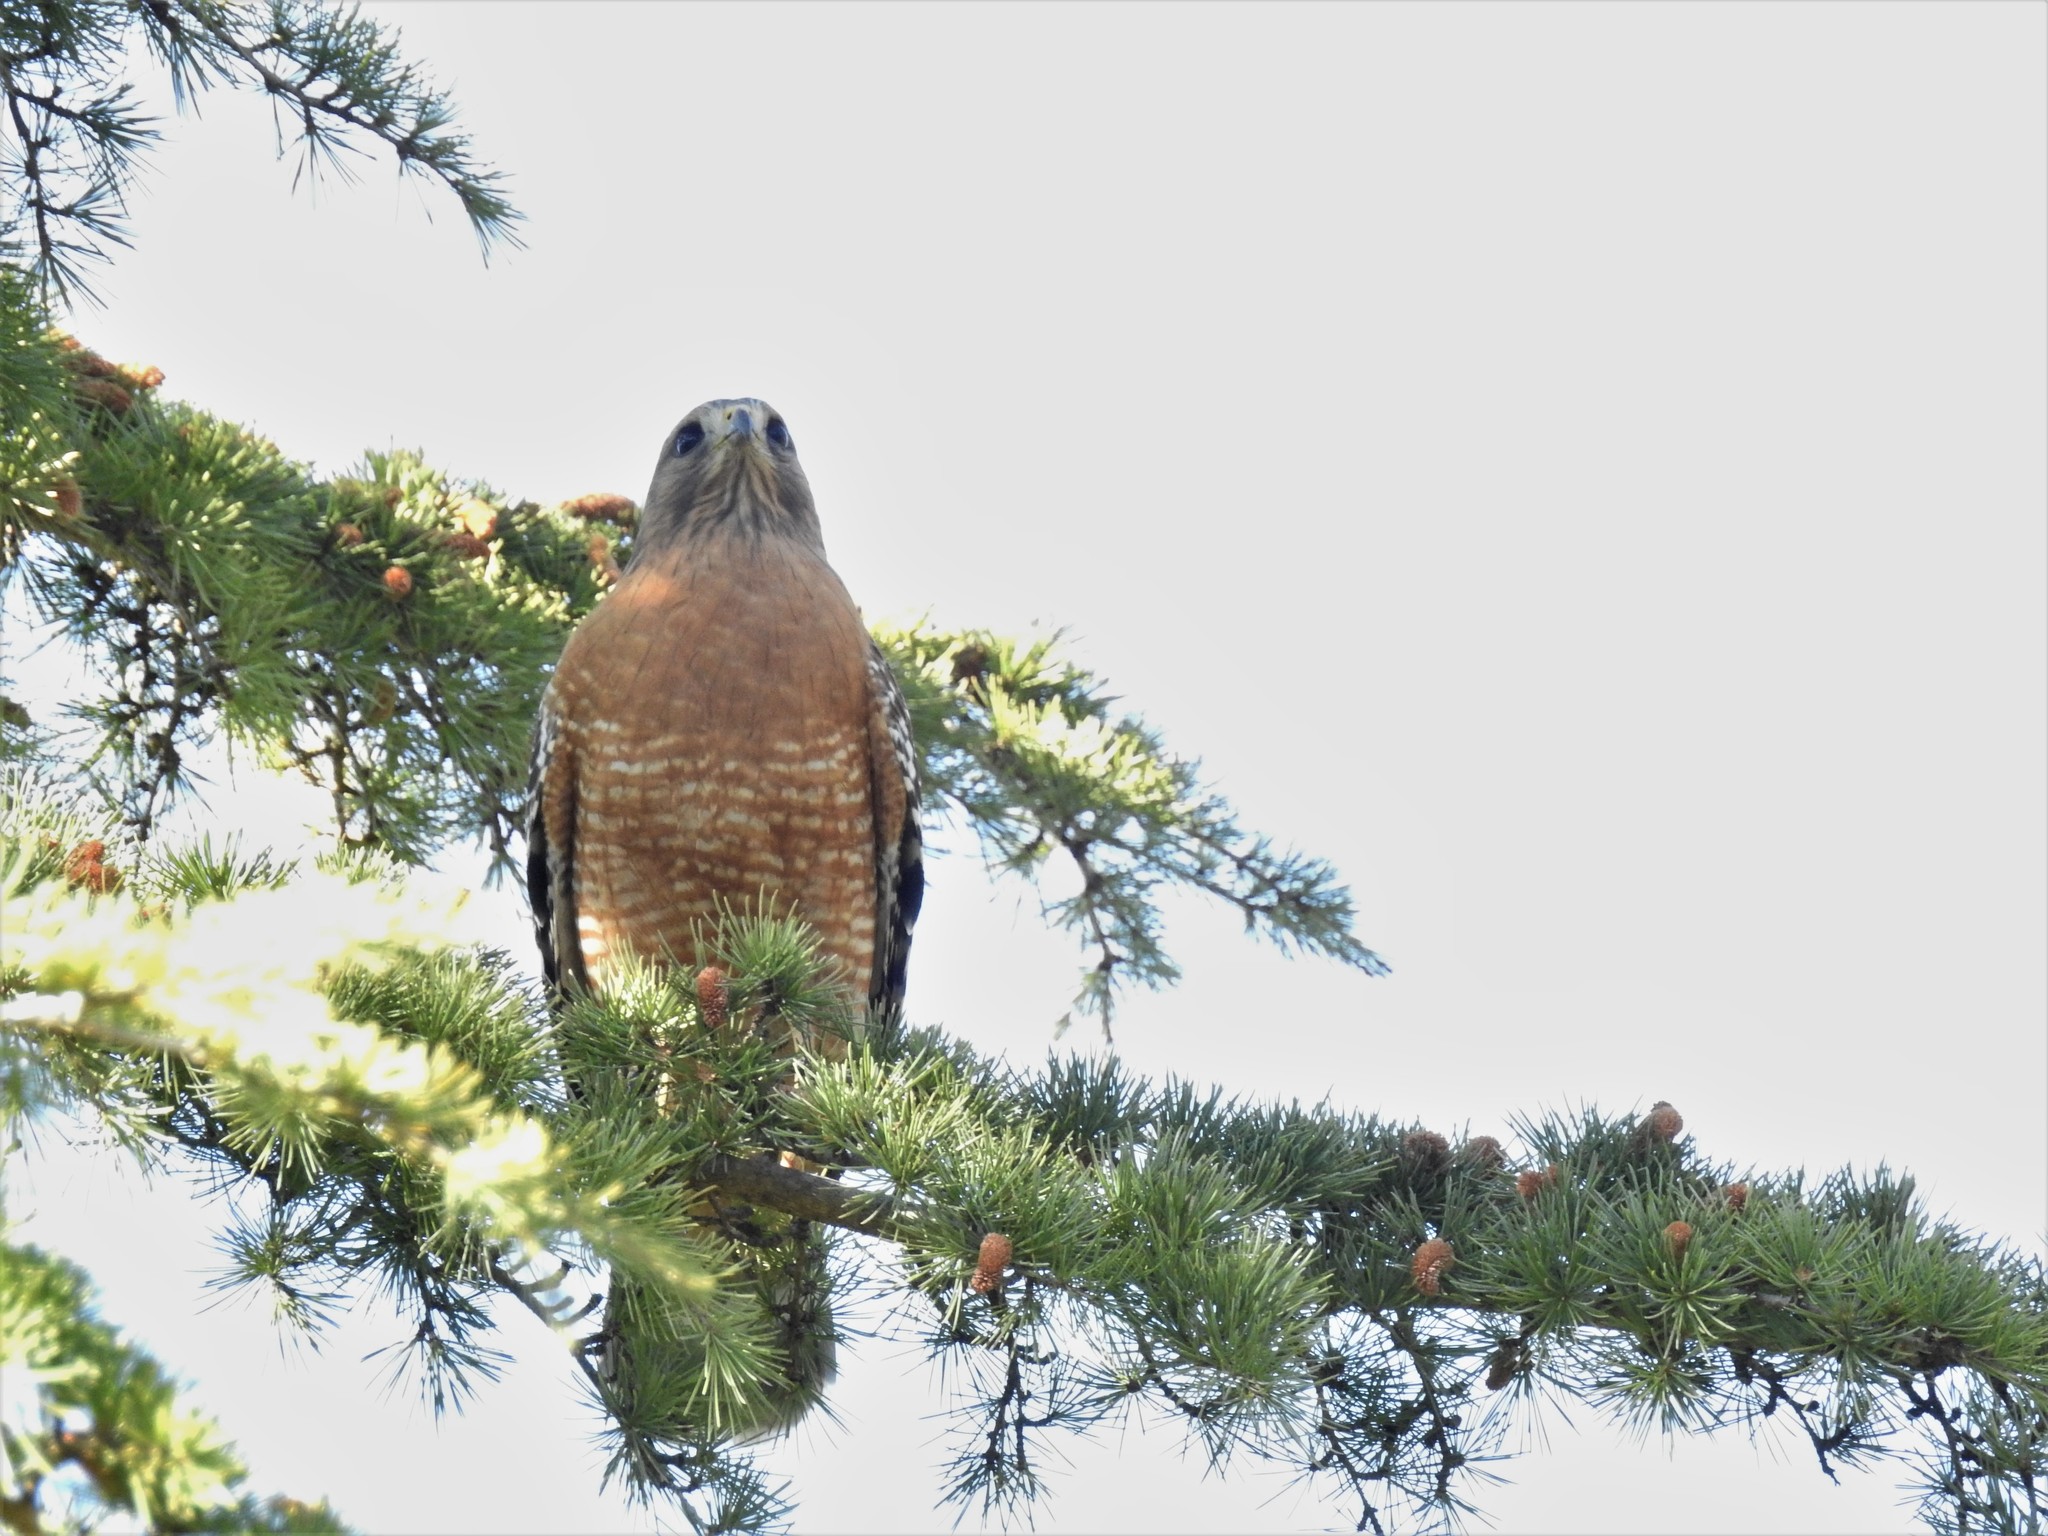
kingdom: Animalia
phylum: Chordata
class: Aves
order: Accipitriformes
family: Accipitridae
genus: Buteo
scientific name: Buteo lineatus
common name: Red-shouldered hawk
